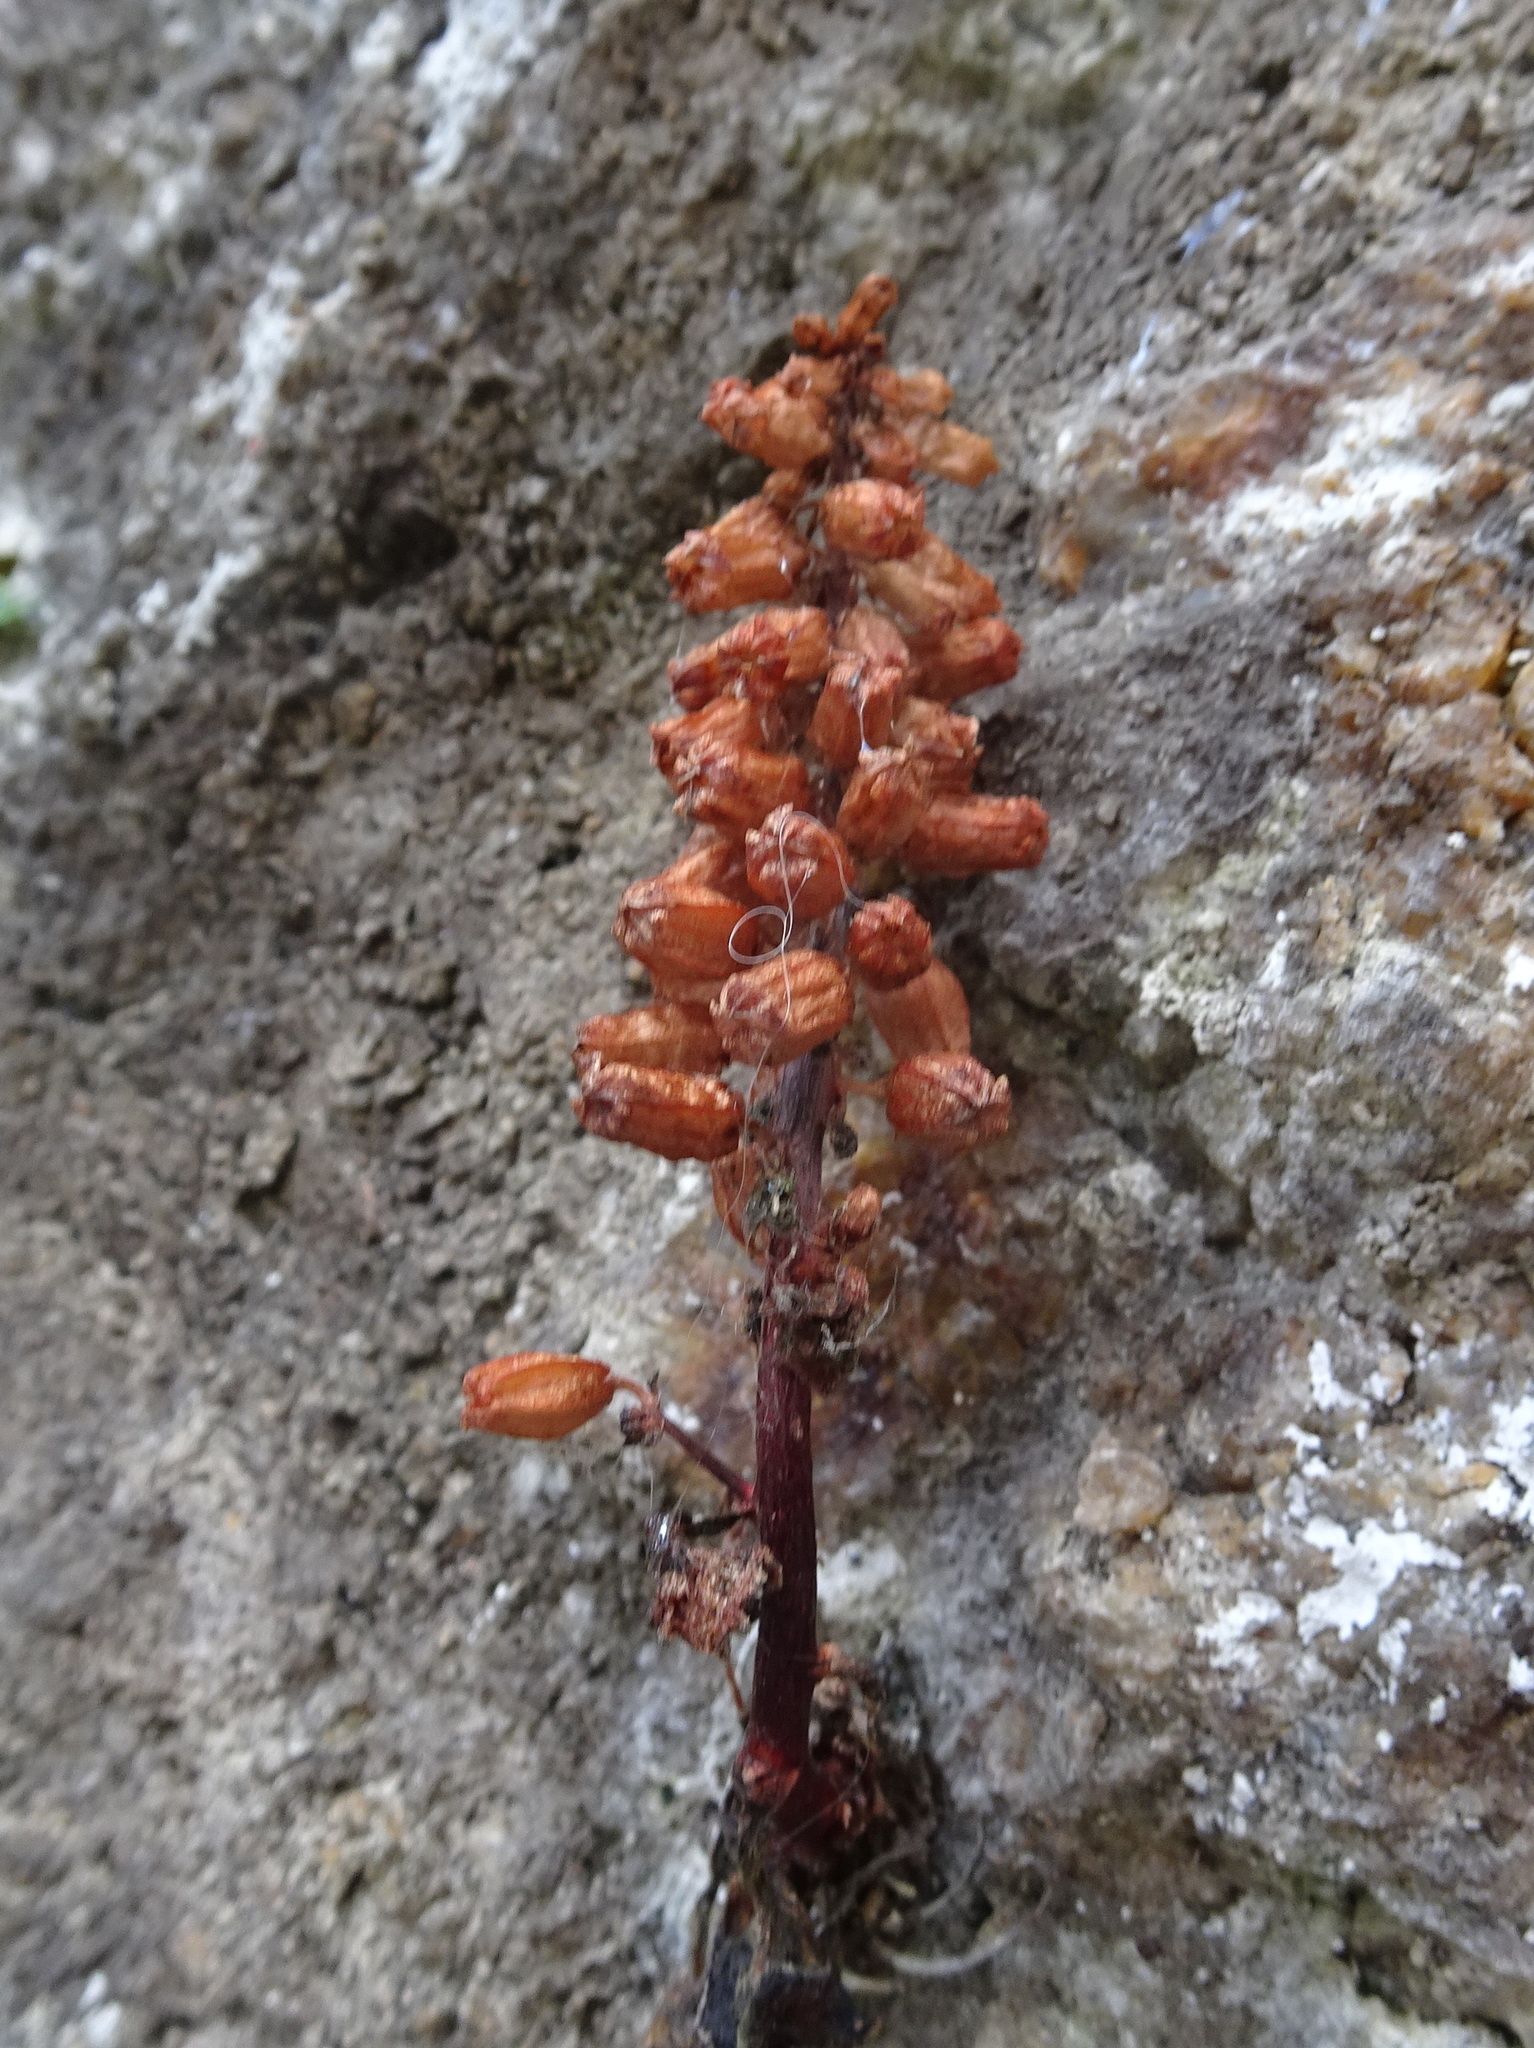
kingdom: Plantae
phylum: Tracheophyta
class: Magnoliopsida
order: Saxifragales
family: Crassulaceae
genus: Umbilicus
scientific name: Umbilicus rupestris
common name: Navelwort
